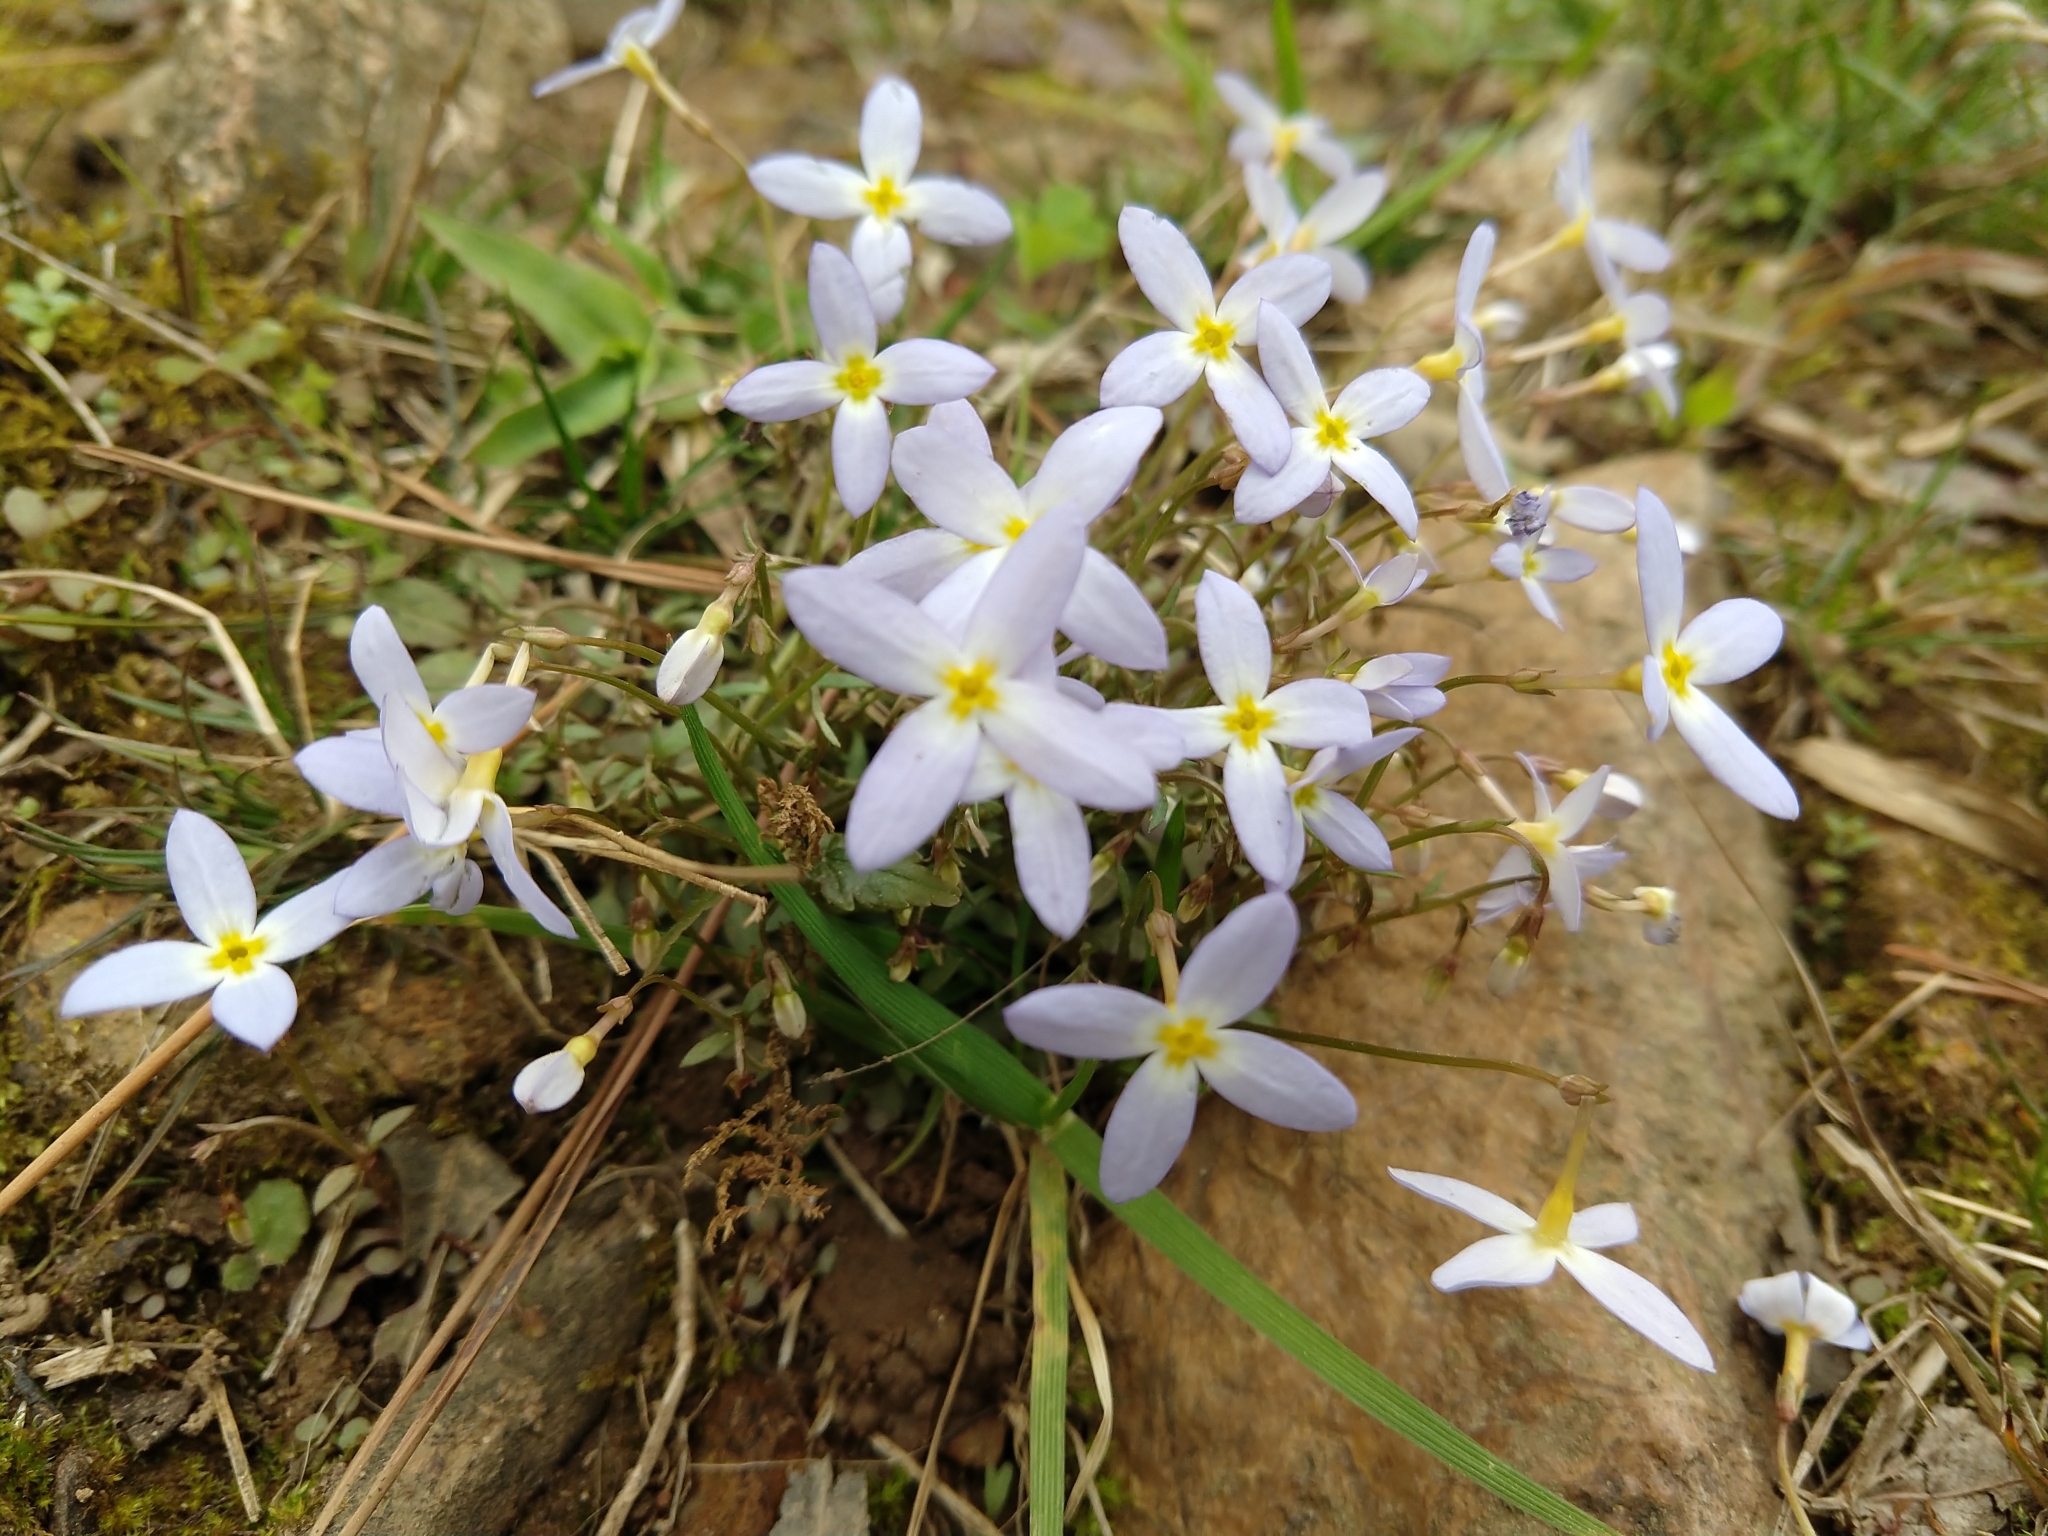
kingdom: Plantae
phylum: Tracheophyta
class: Magnoliopsida
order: Gentianales
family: Rubiaceae
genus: Houstonia
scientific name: Houstonia caerulea
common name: Bluets
